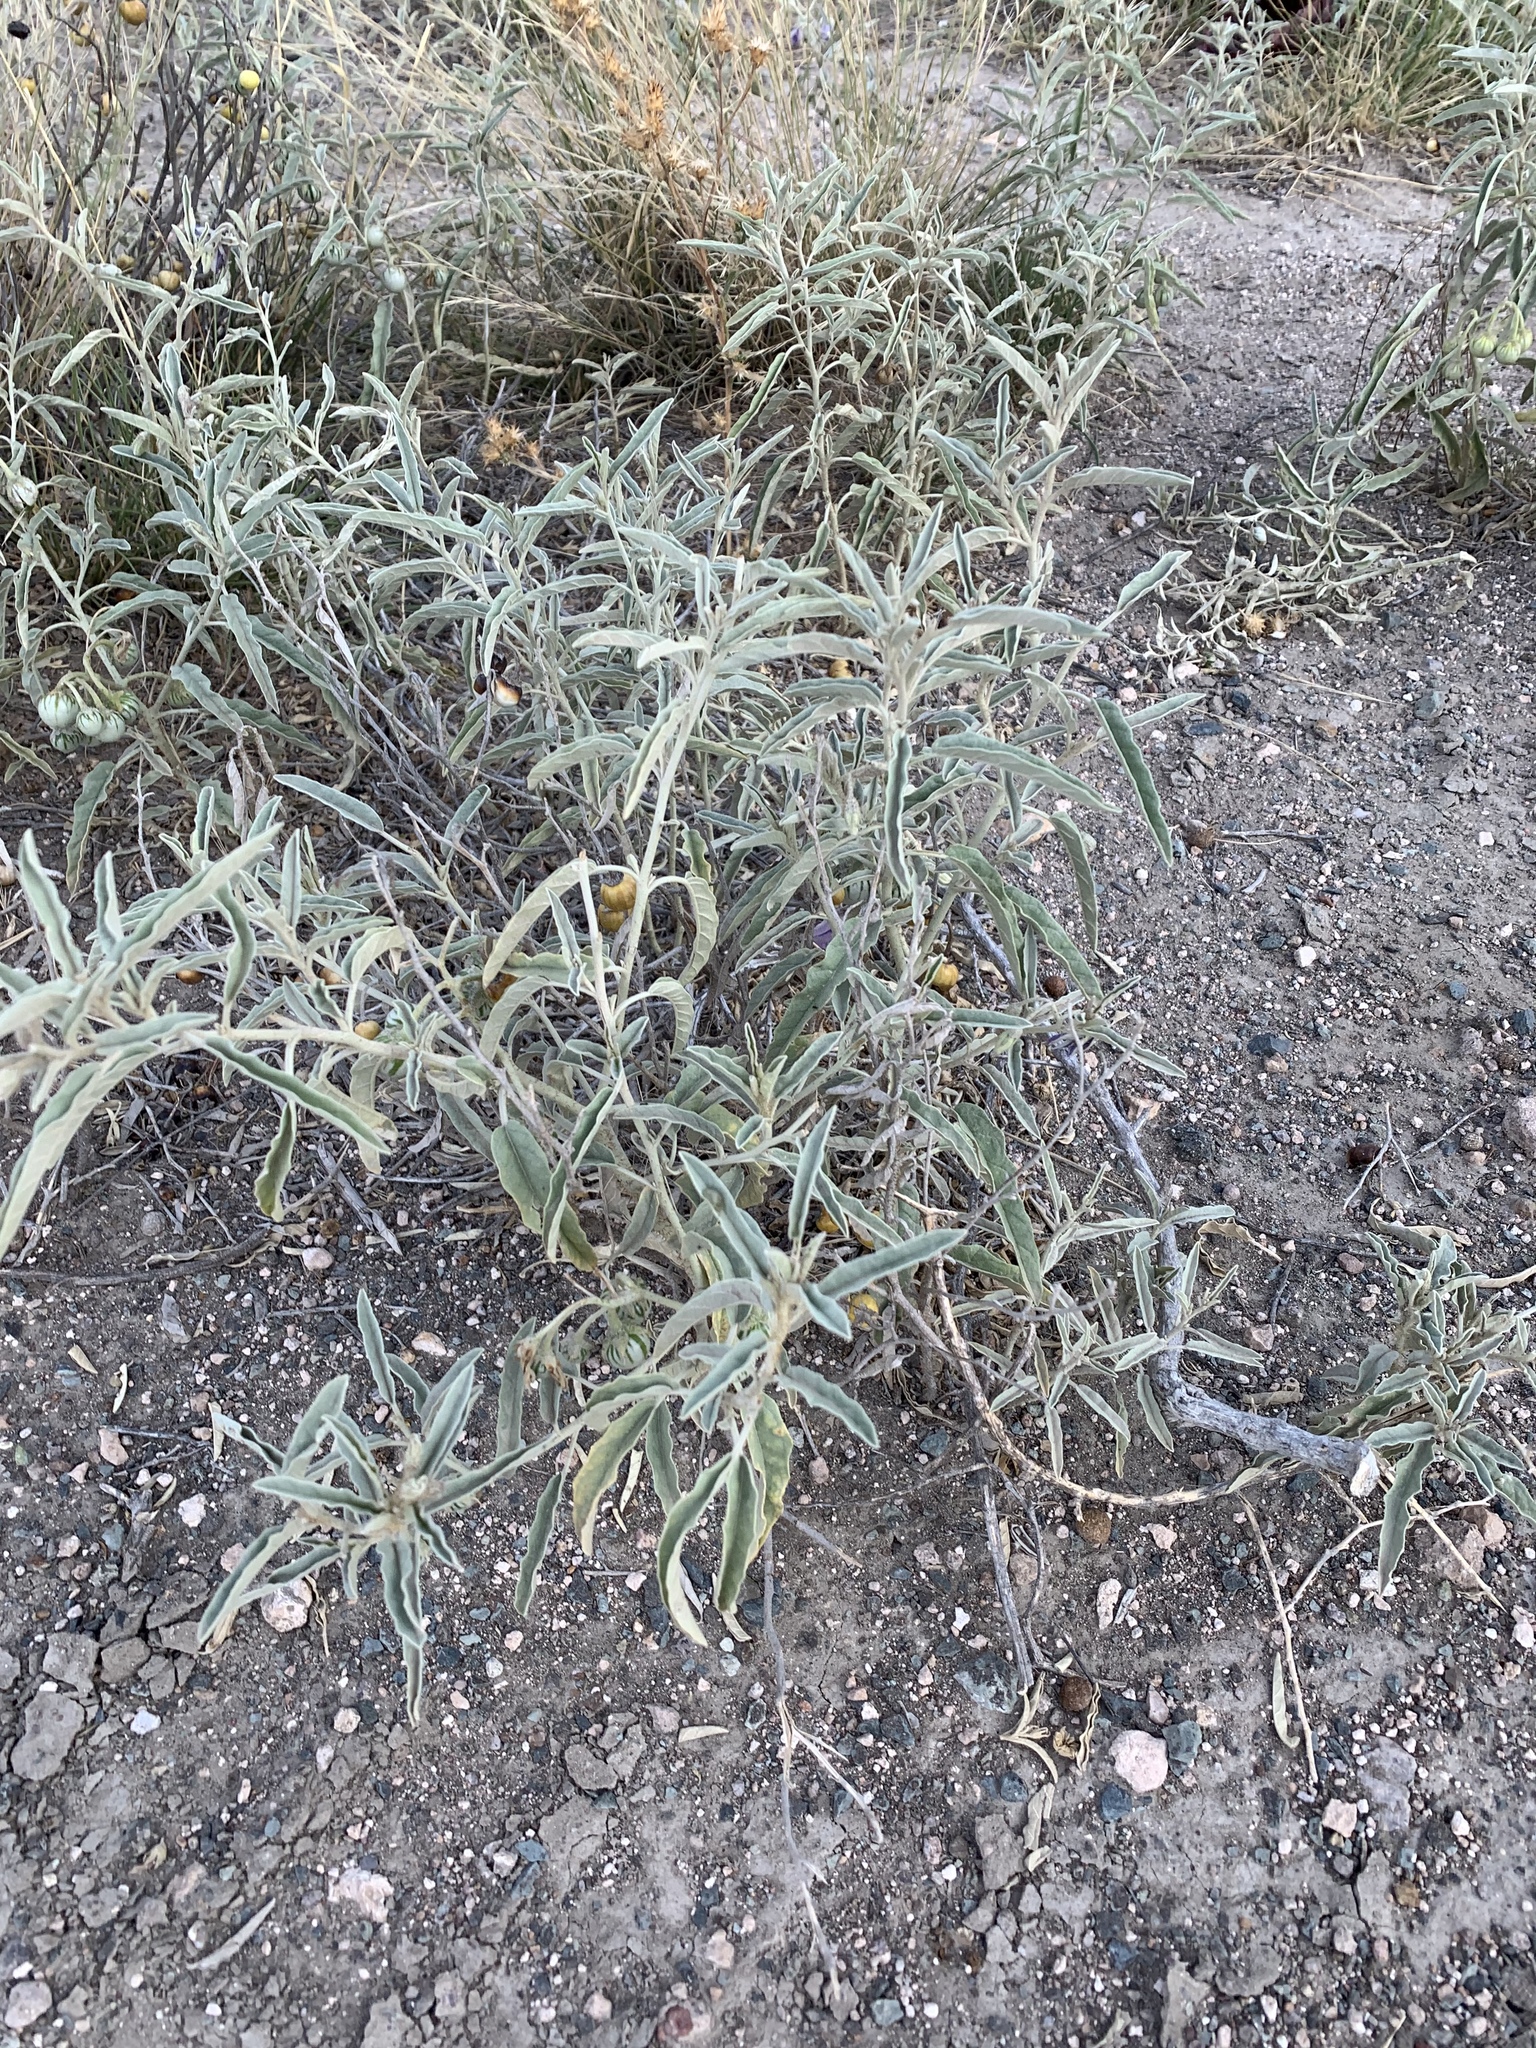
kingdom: Plantae
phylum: Tracheophyta
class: Magnoliopsida
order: Solanales
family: Solanaceae
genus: Solanum
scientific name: Solanum elaeagnifolium
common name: Silverleaf nightshade
